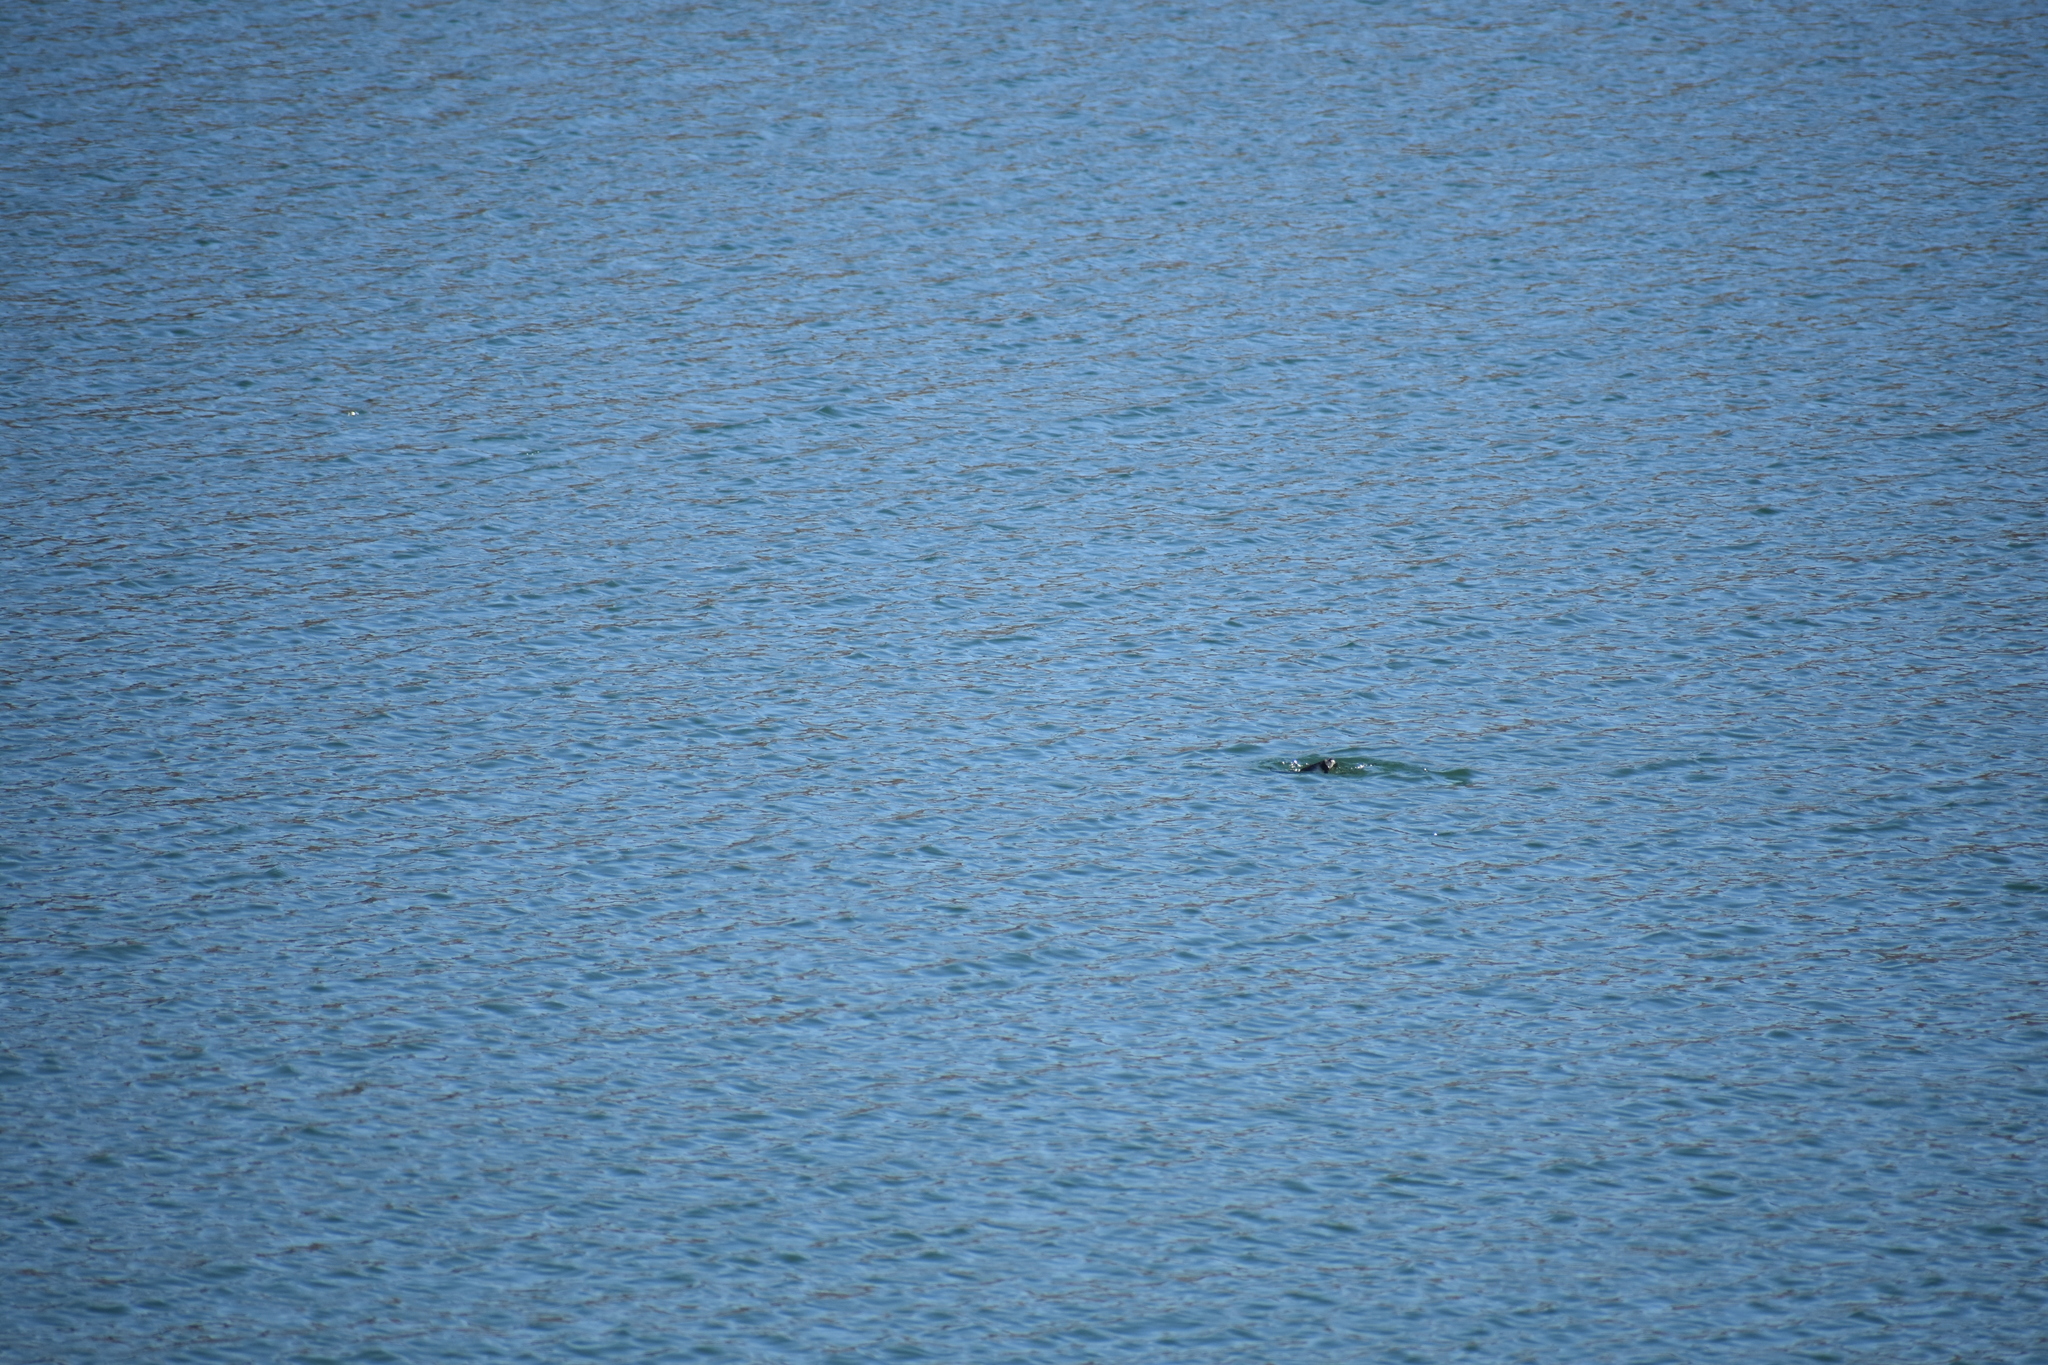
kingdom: Animalia
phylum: Chordata
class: Aves
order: Podicipediformes
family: Podicipedidae
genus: Aechmophorus
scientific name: Aechmophorus occidentalis
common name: Western grebe
